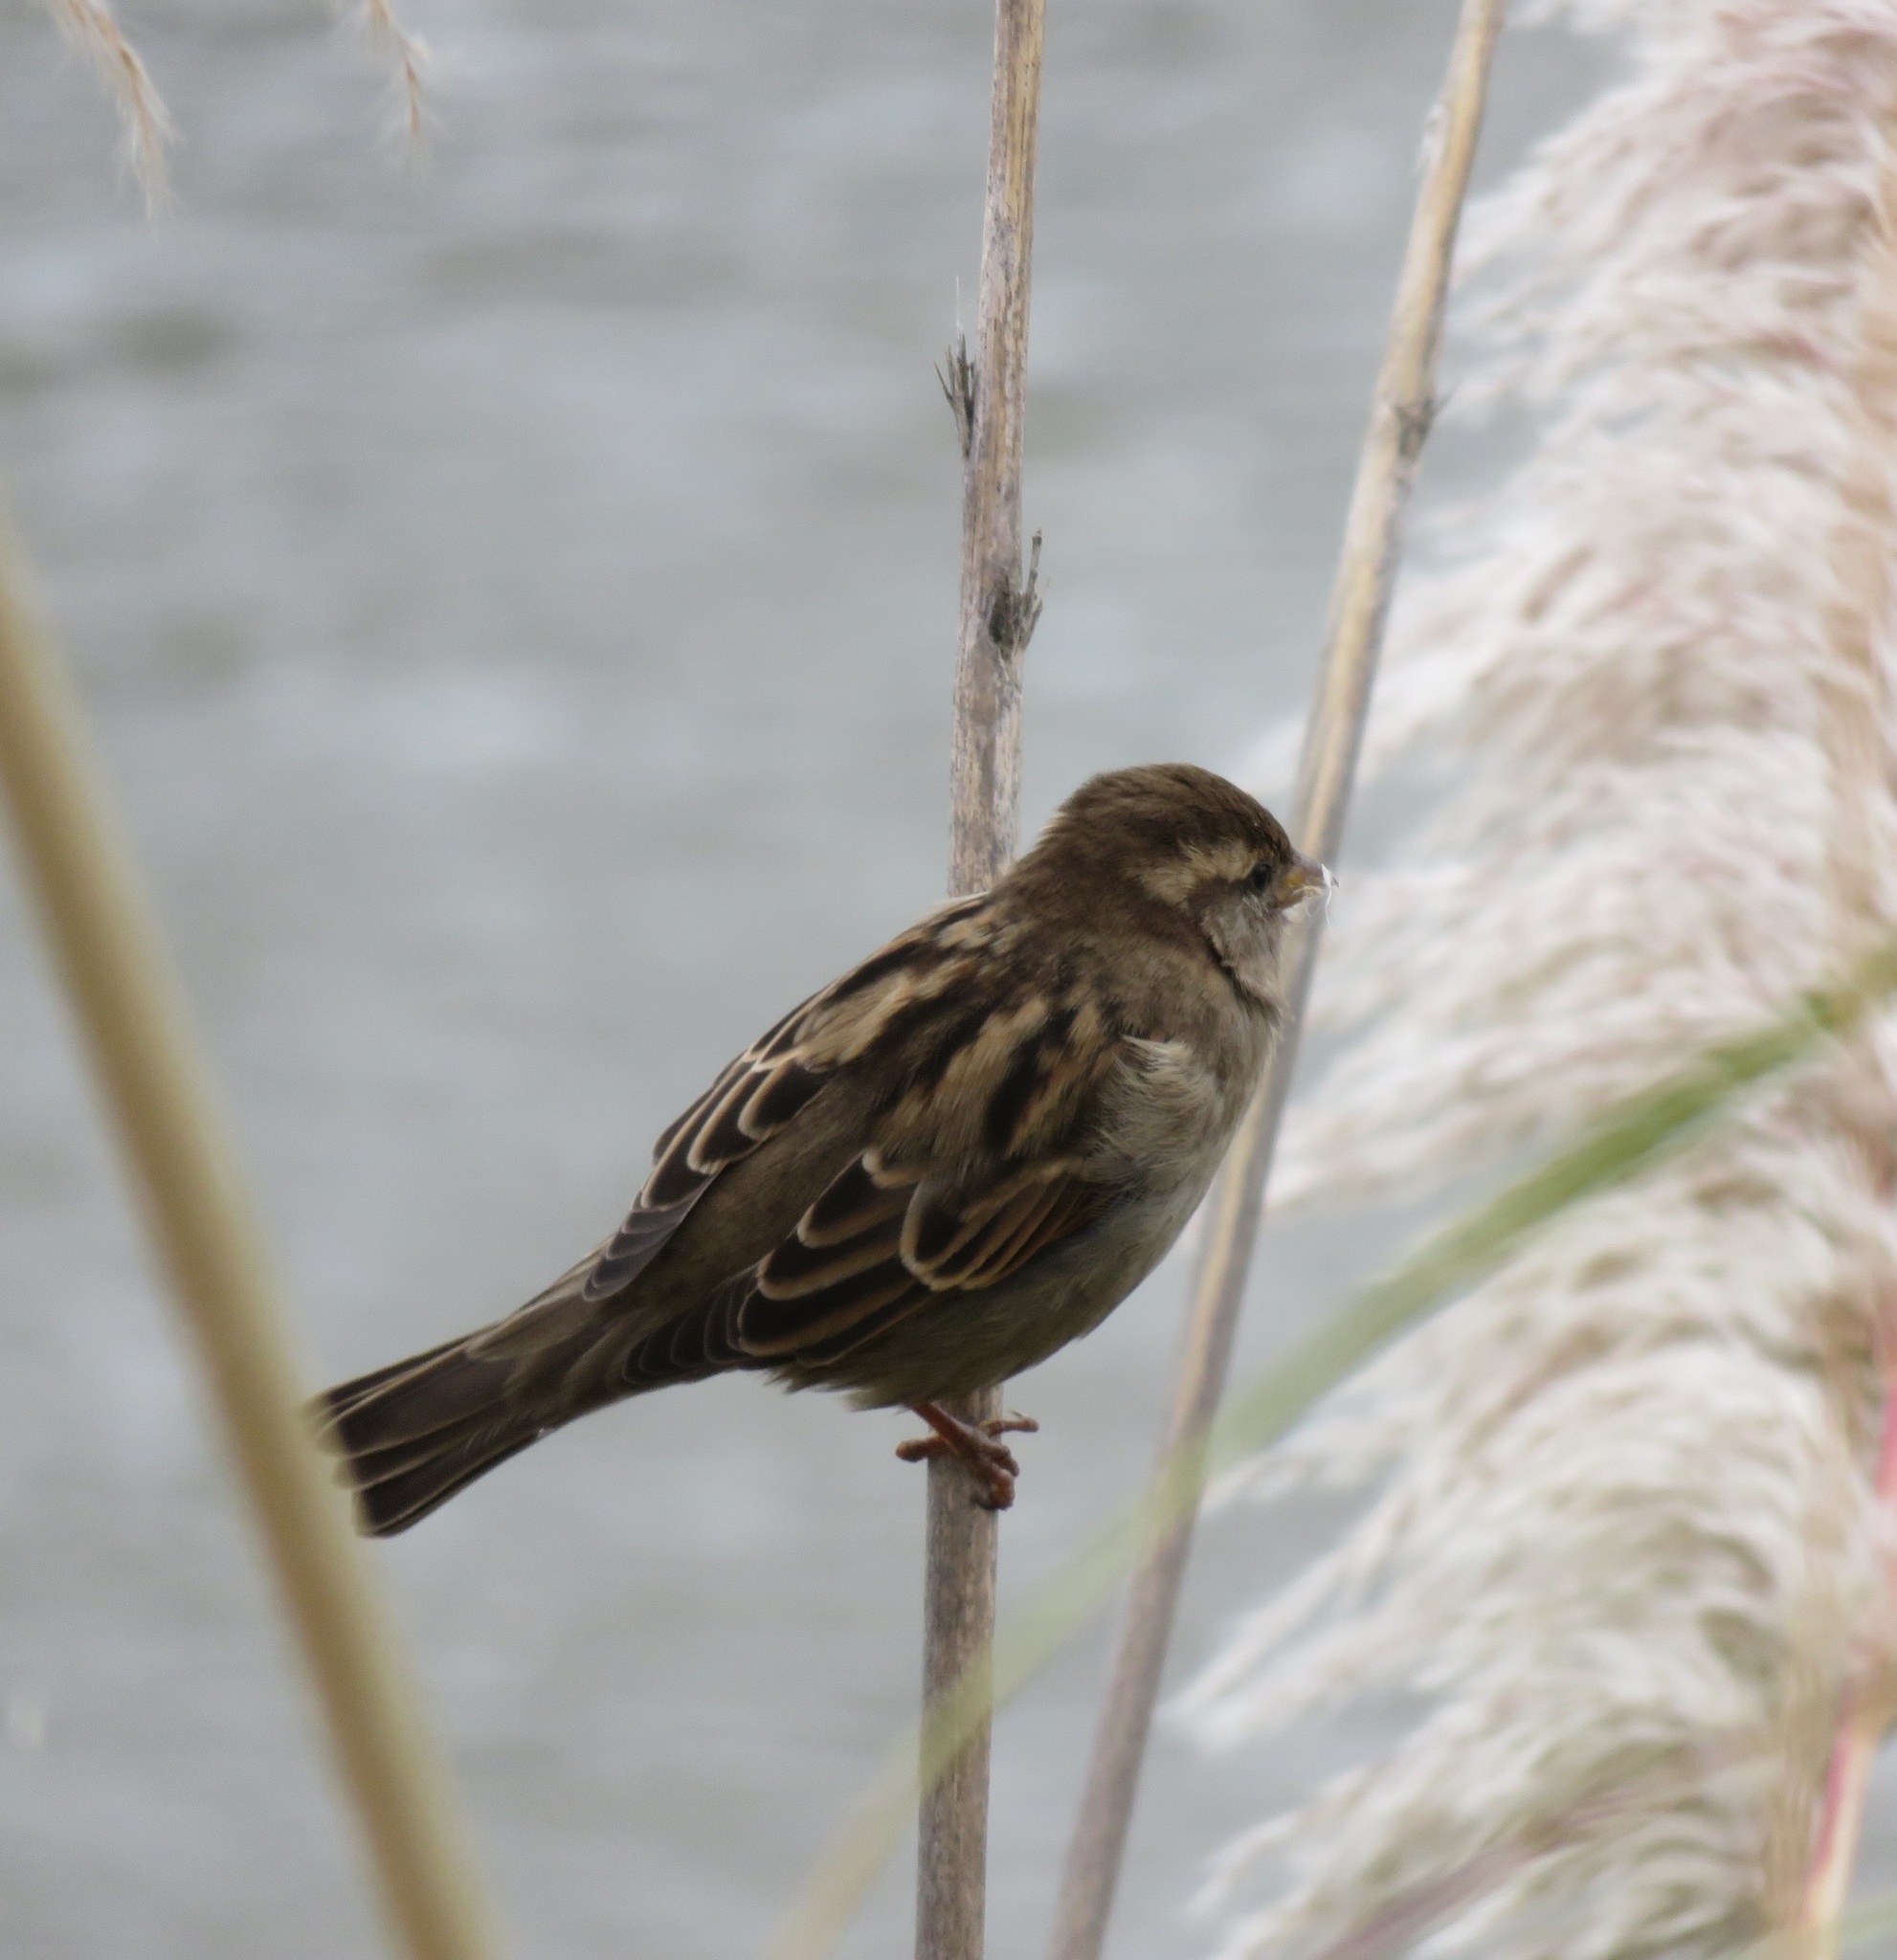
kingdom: Animalia
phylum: Chordata
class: Aves
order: Passeriformes
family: Passeridae
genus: Passer
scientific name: Passer domesticus
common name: House sparrow
